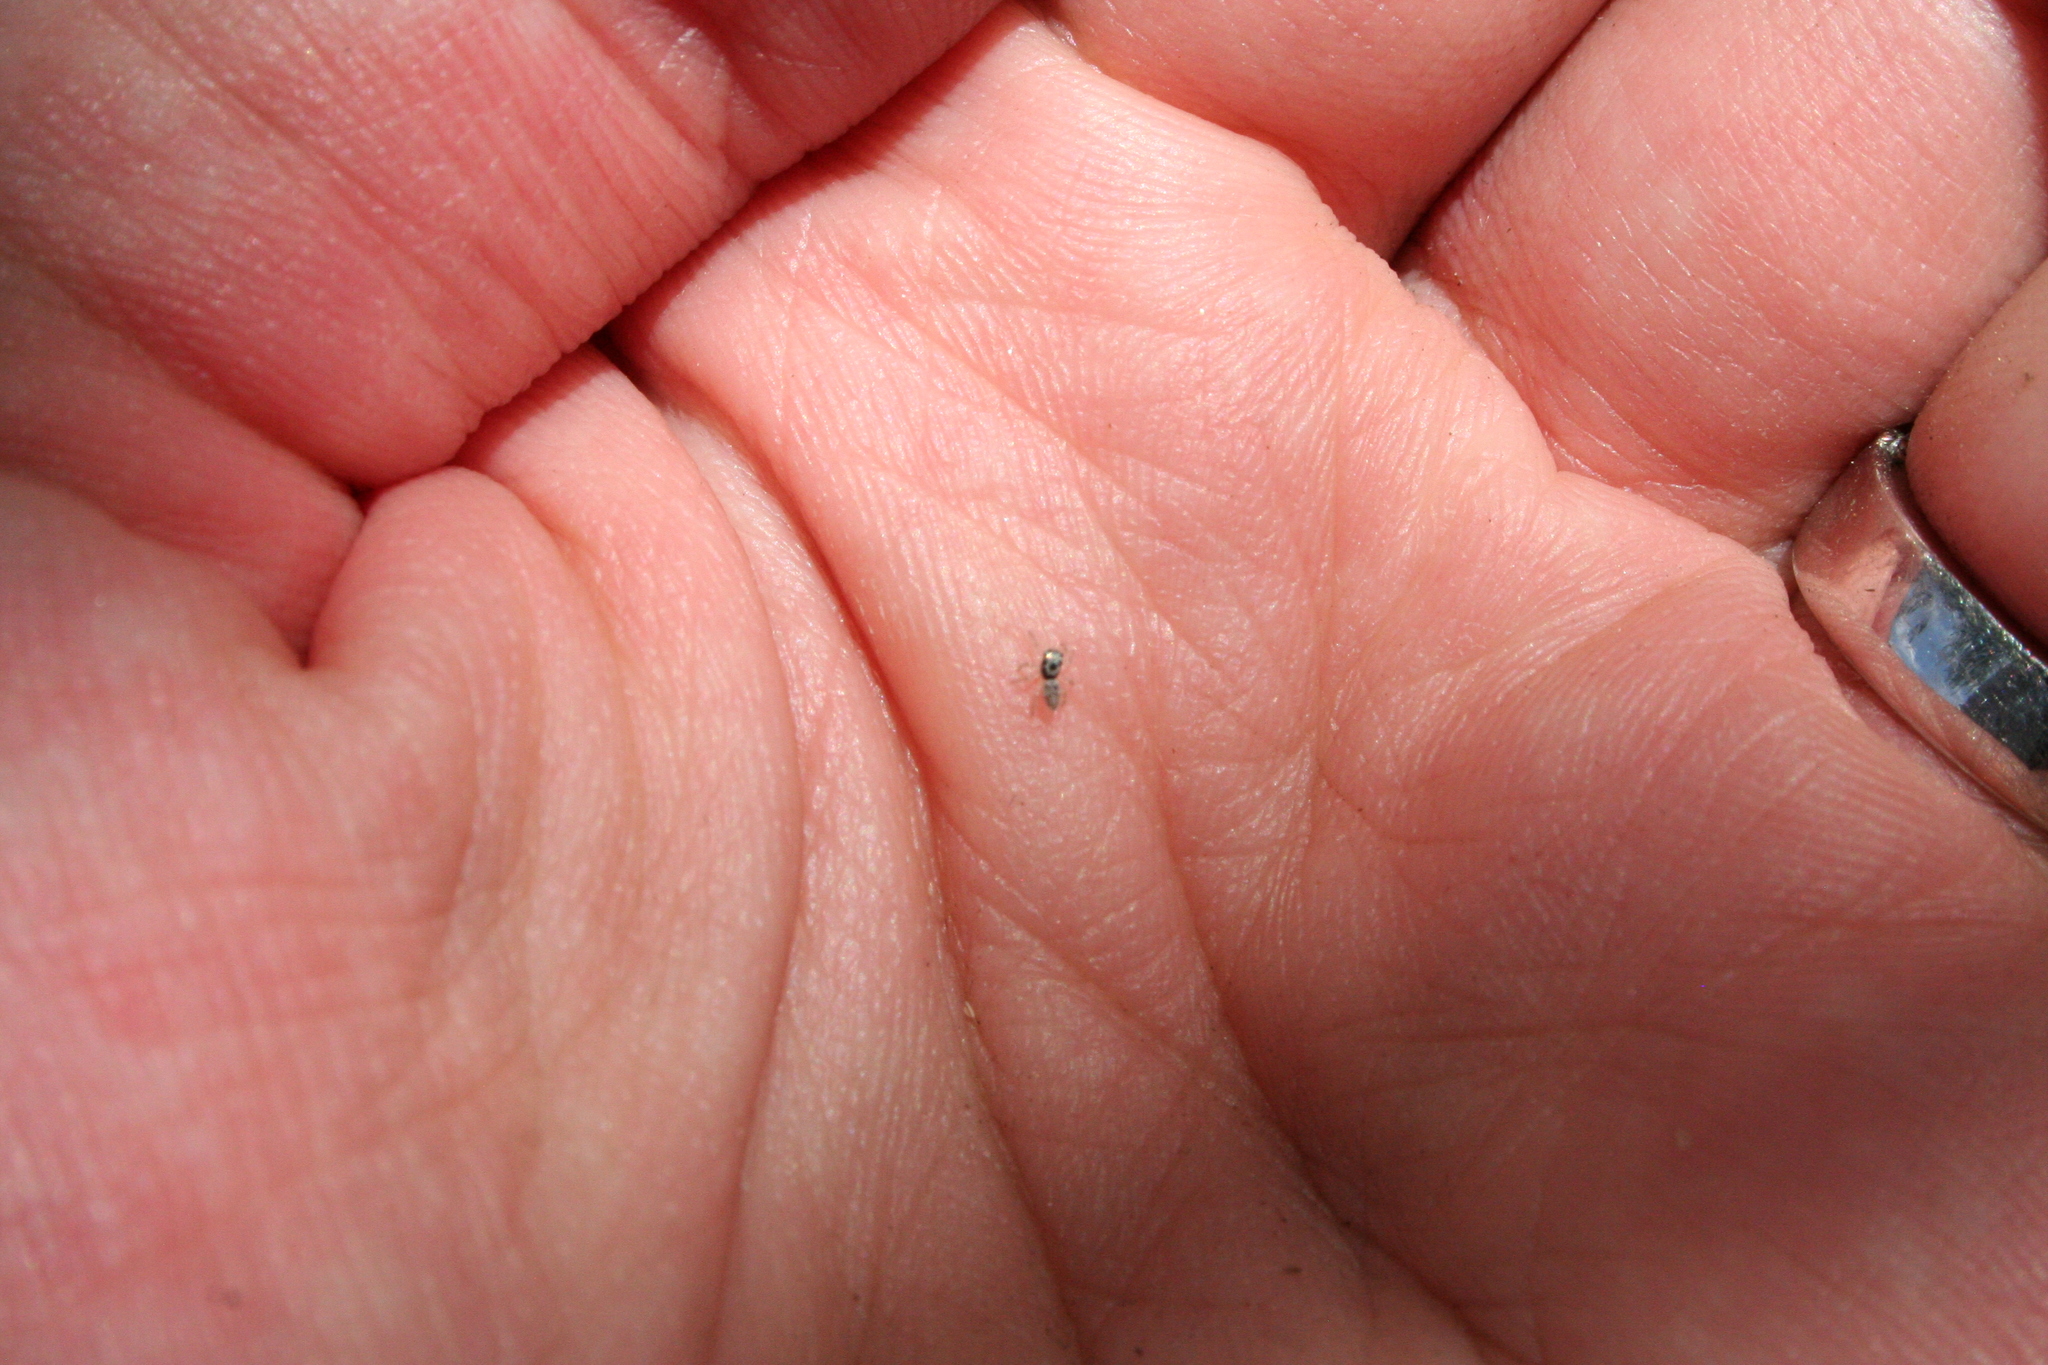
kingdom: Animalia
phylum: Arthropoda
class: Arachnida
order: Araneae
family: Salticidae
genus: Salticus
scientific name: Salticus scenicus
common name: Zebra jumper
